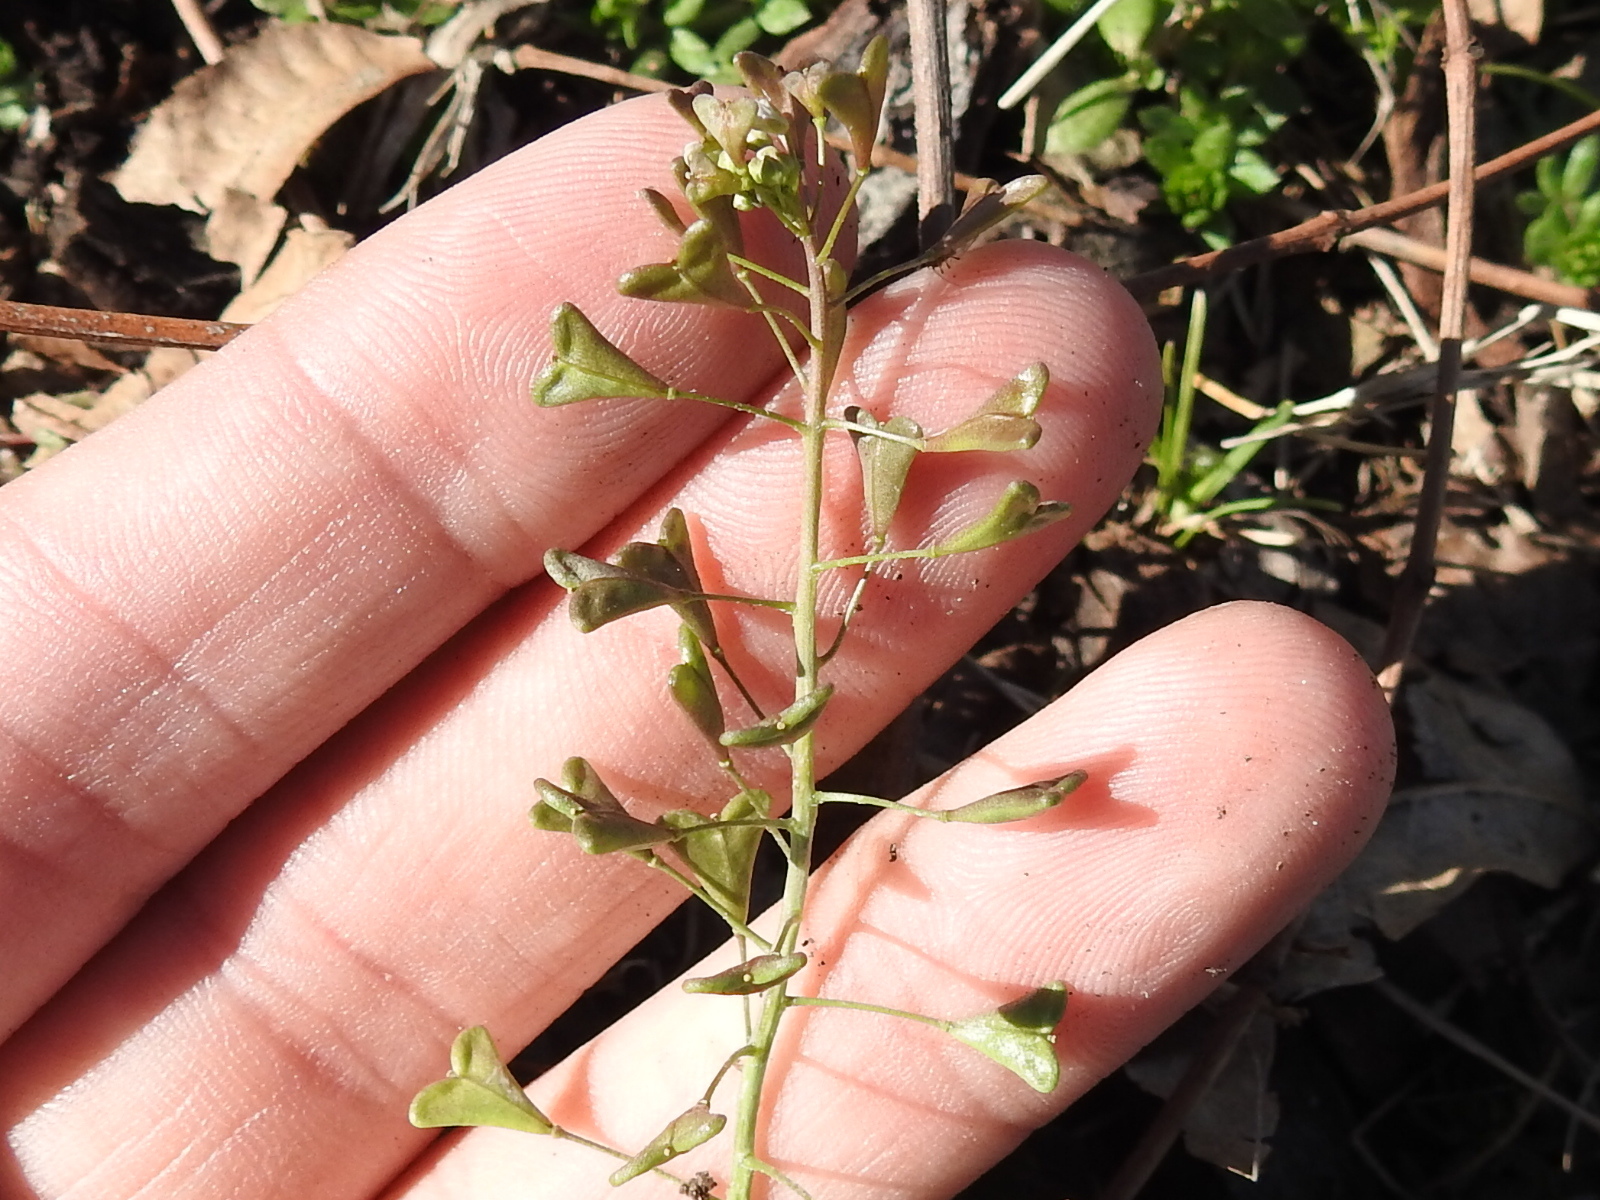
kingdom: Plantae
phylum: Tracheophyta
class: Magnoliopsida
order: Brassicales
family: Brassicaceae
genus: Capsella
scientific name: Capsella bursa-pastoris
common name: Shepherd's purse
